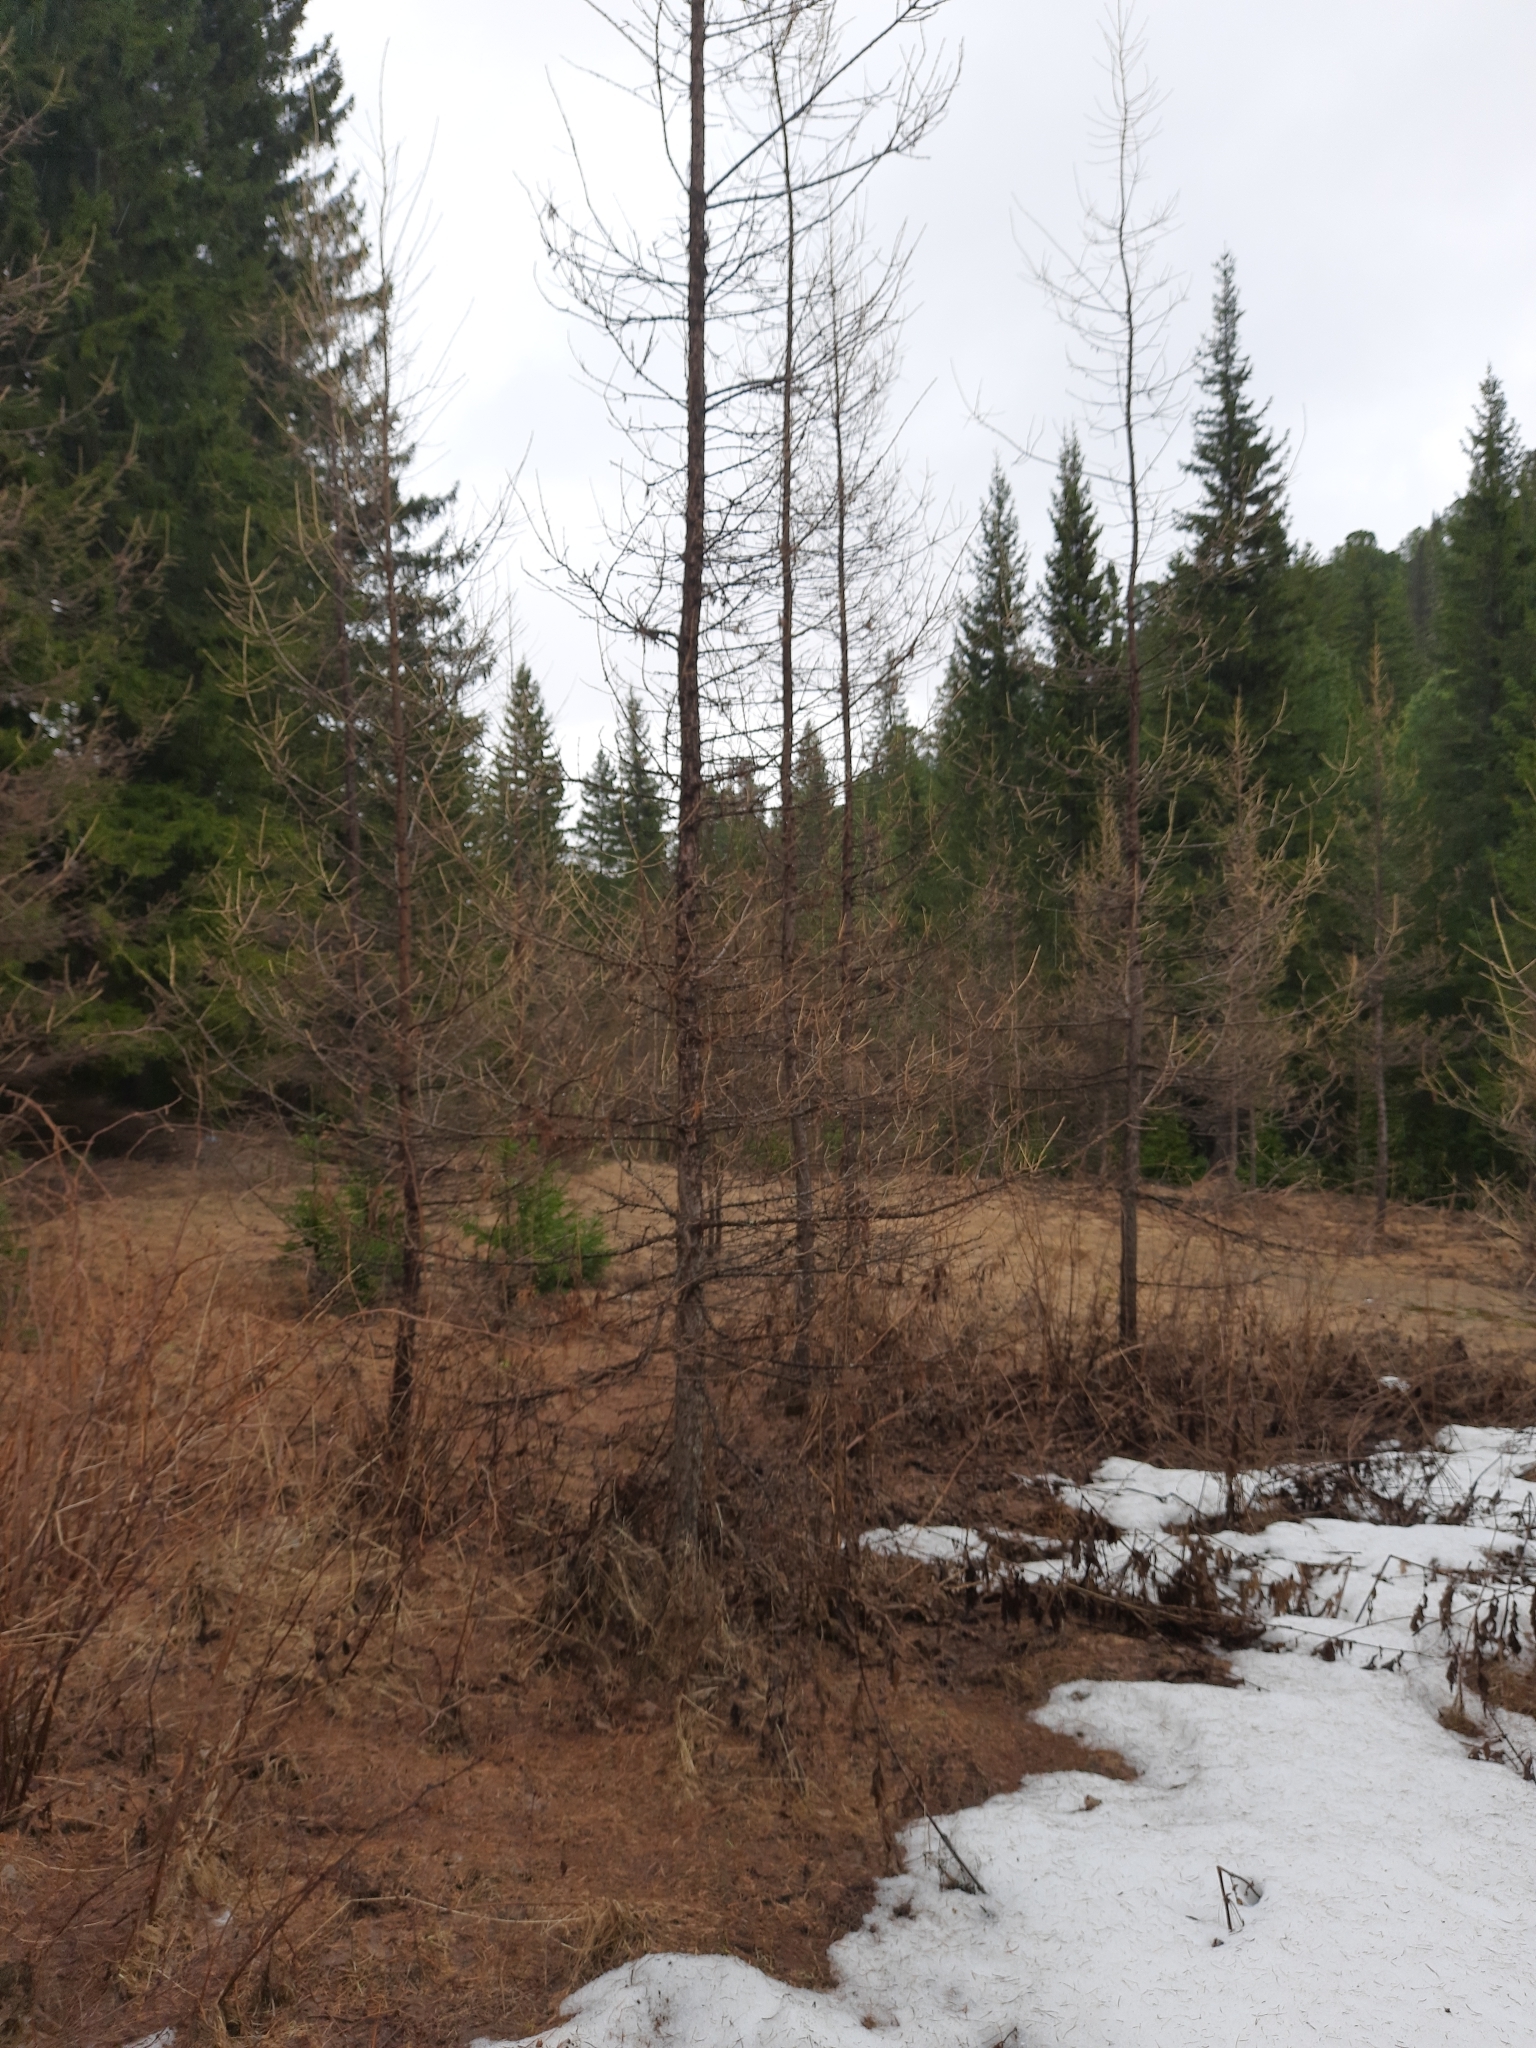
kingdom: Plantae
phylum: Tracheophyta
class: Pinopsida
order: Pinales
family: Pinaceae
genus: Larix
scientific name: Larix sibirica
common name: Siberian larch
